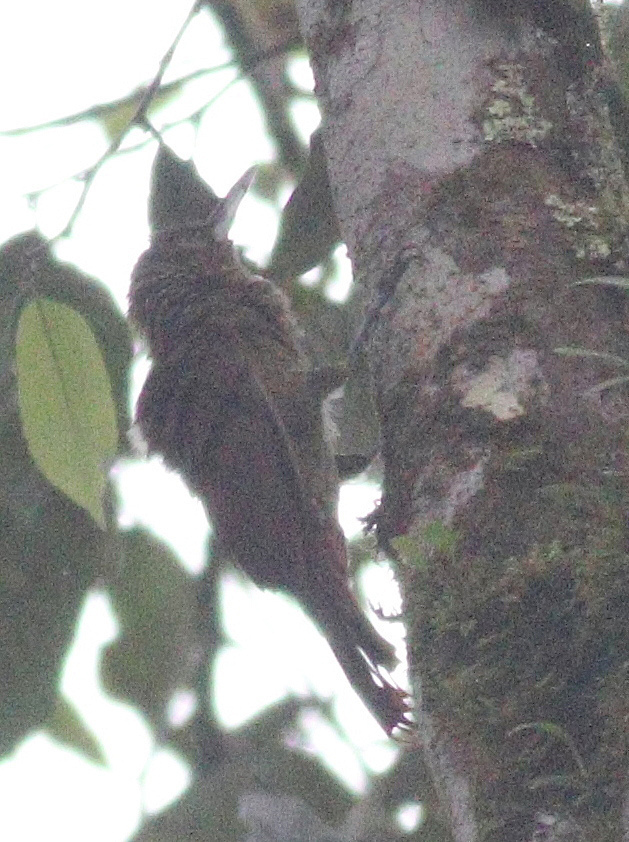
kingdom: Animalia
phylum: Chordata
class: Aves
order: Passeriformes
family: Furnariidae
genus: Xiphorhynchus
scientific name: Xiphorhynchus erythropygius
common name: Spotted woodcreeper
